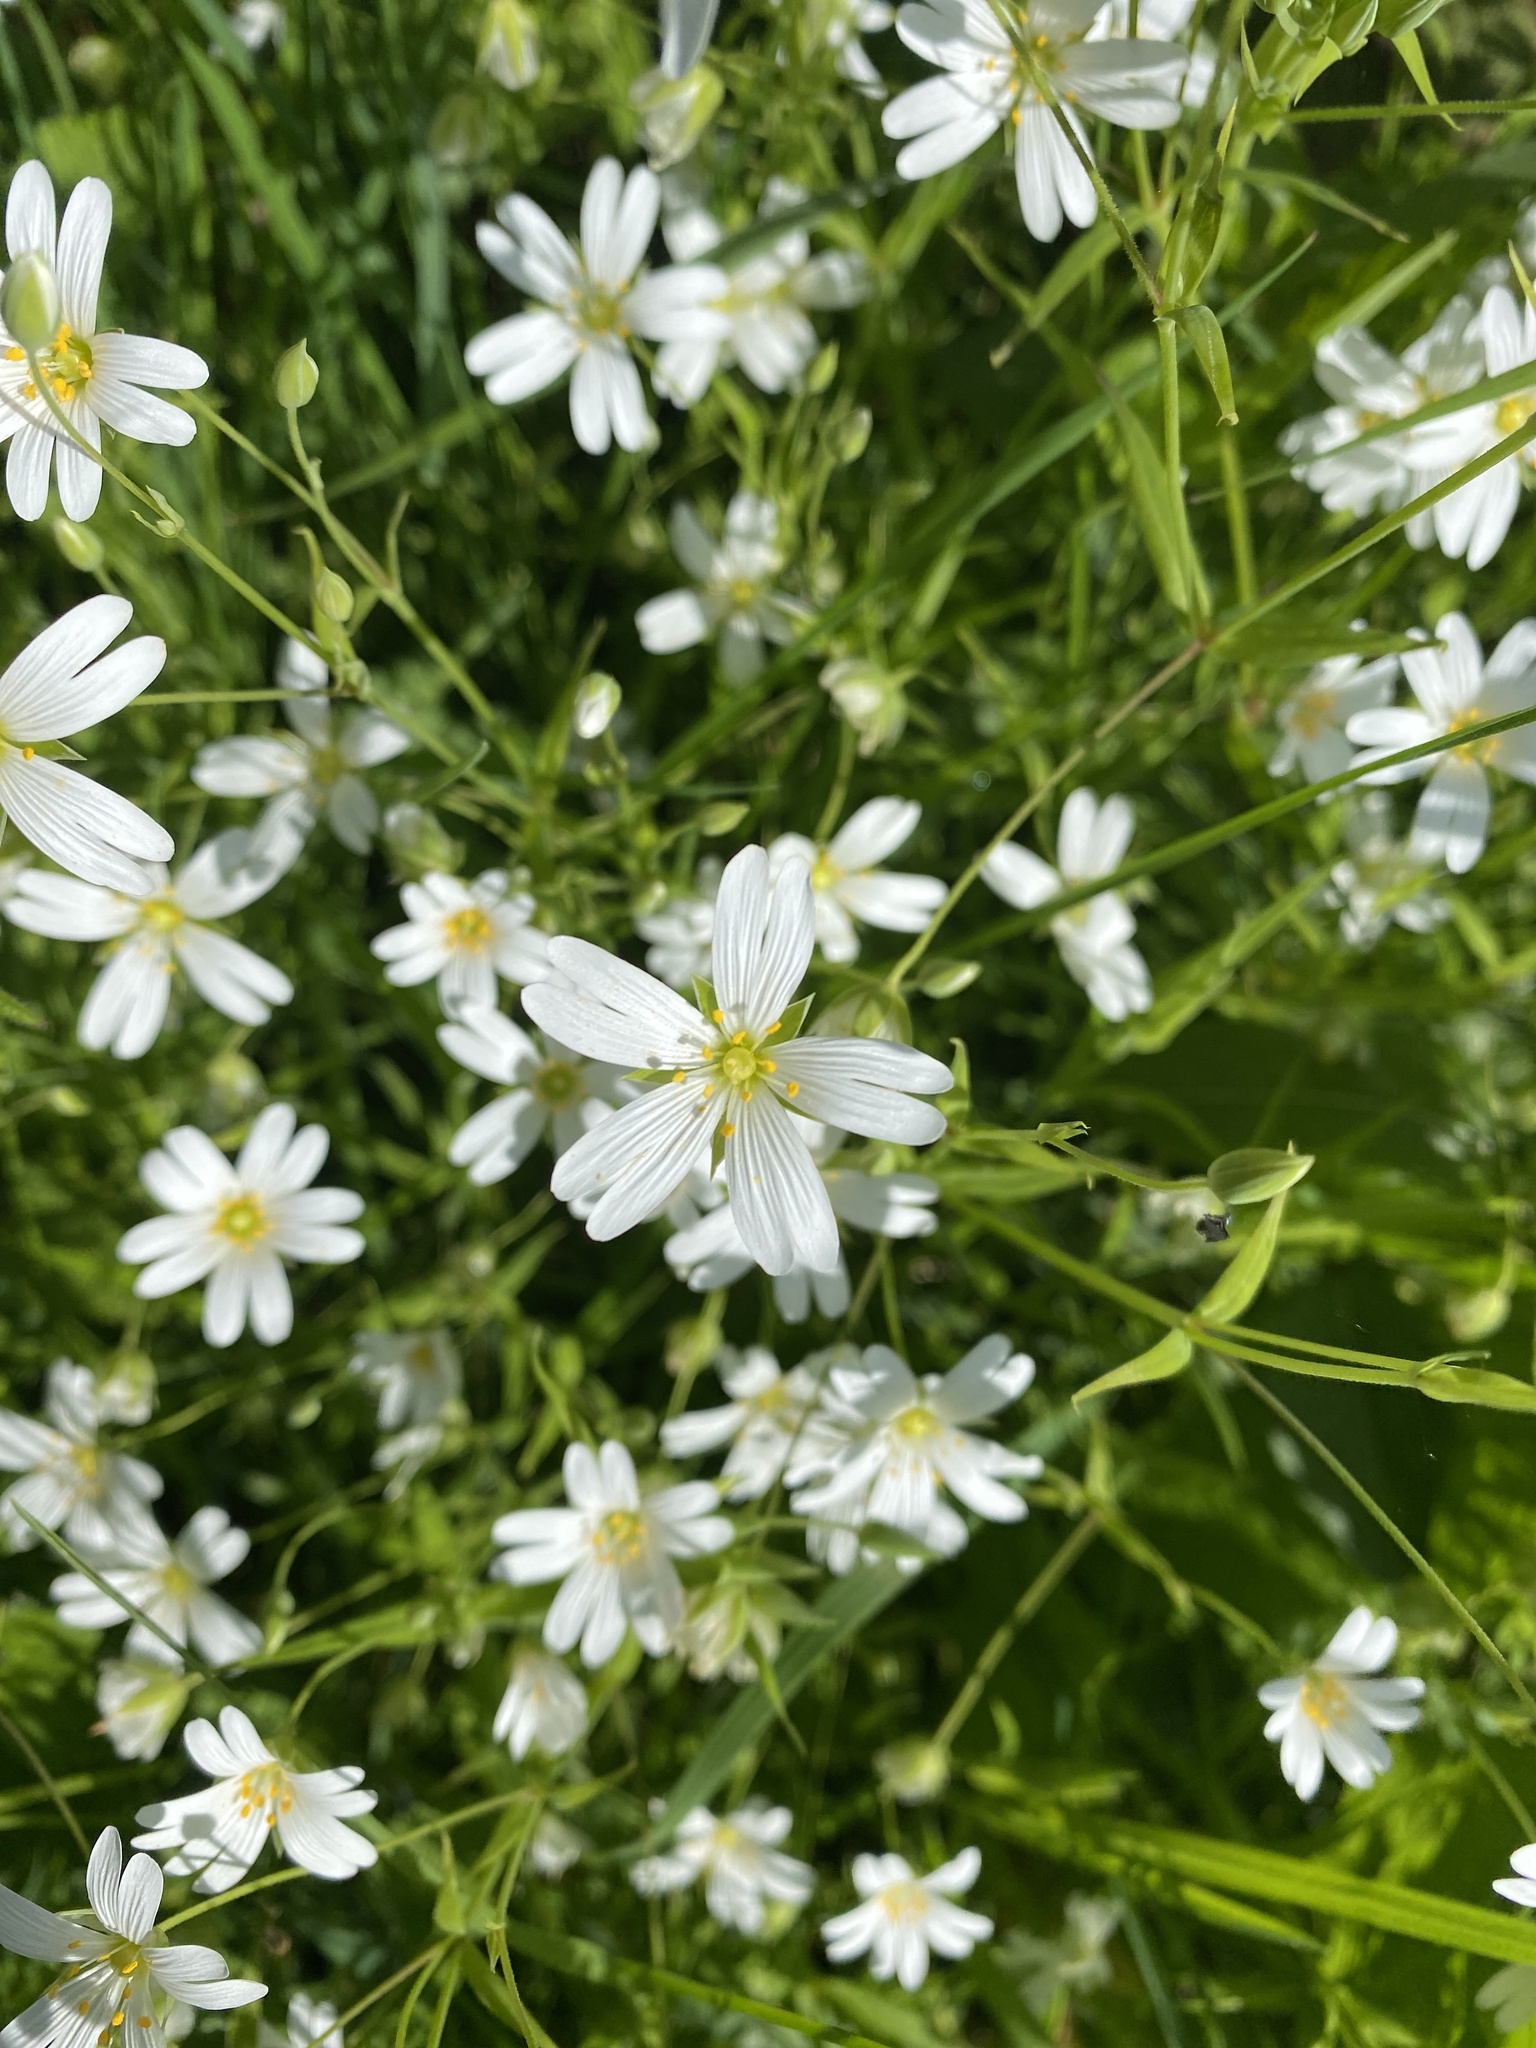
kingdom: Plantae
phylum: Tracheophyta
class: Magnoliopsida
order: Caryophyllales
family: Caryophyllaceae
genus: Rabelera
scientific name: Rabelera holostea
